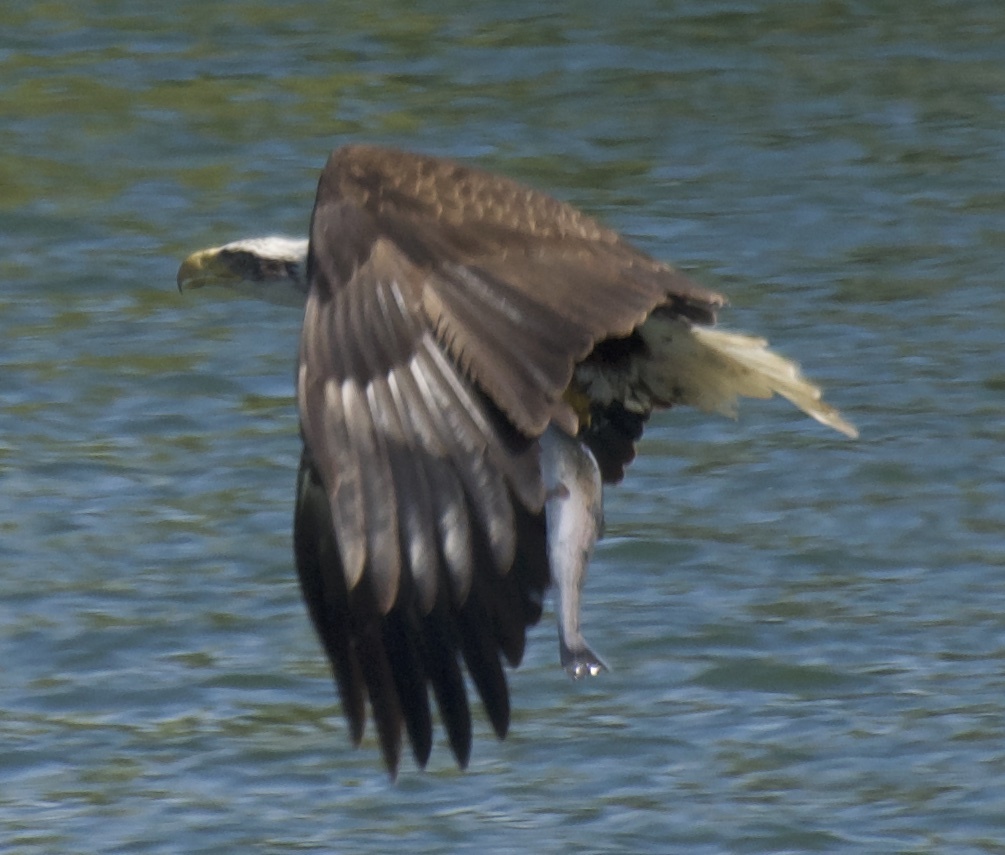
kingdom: Animalia
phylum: Chordata
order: Salmoniformes
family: Salmonidae
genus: Oncorhynchus
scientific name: Oncorhynchus mykiss
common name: Rainbow trout
